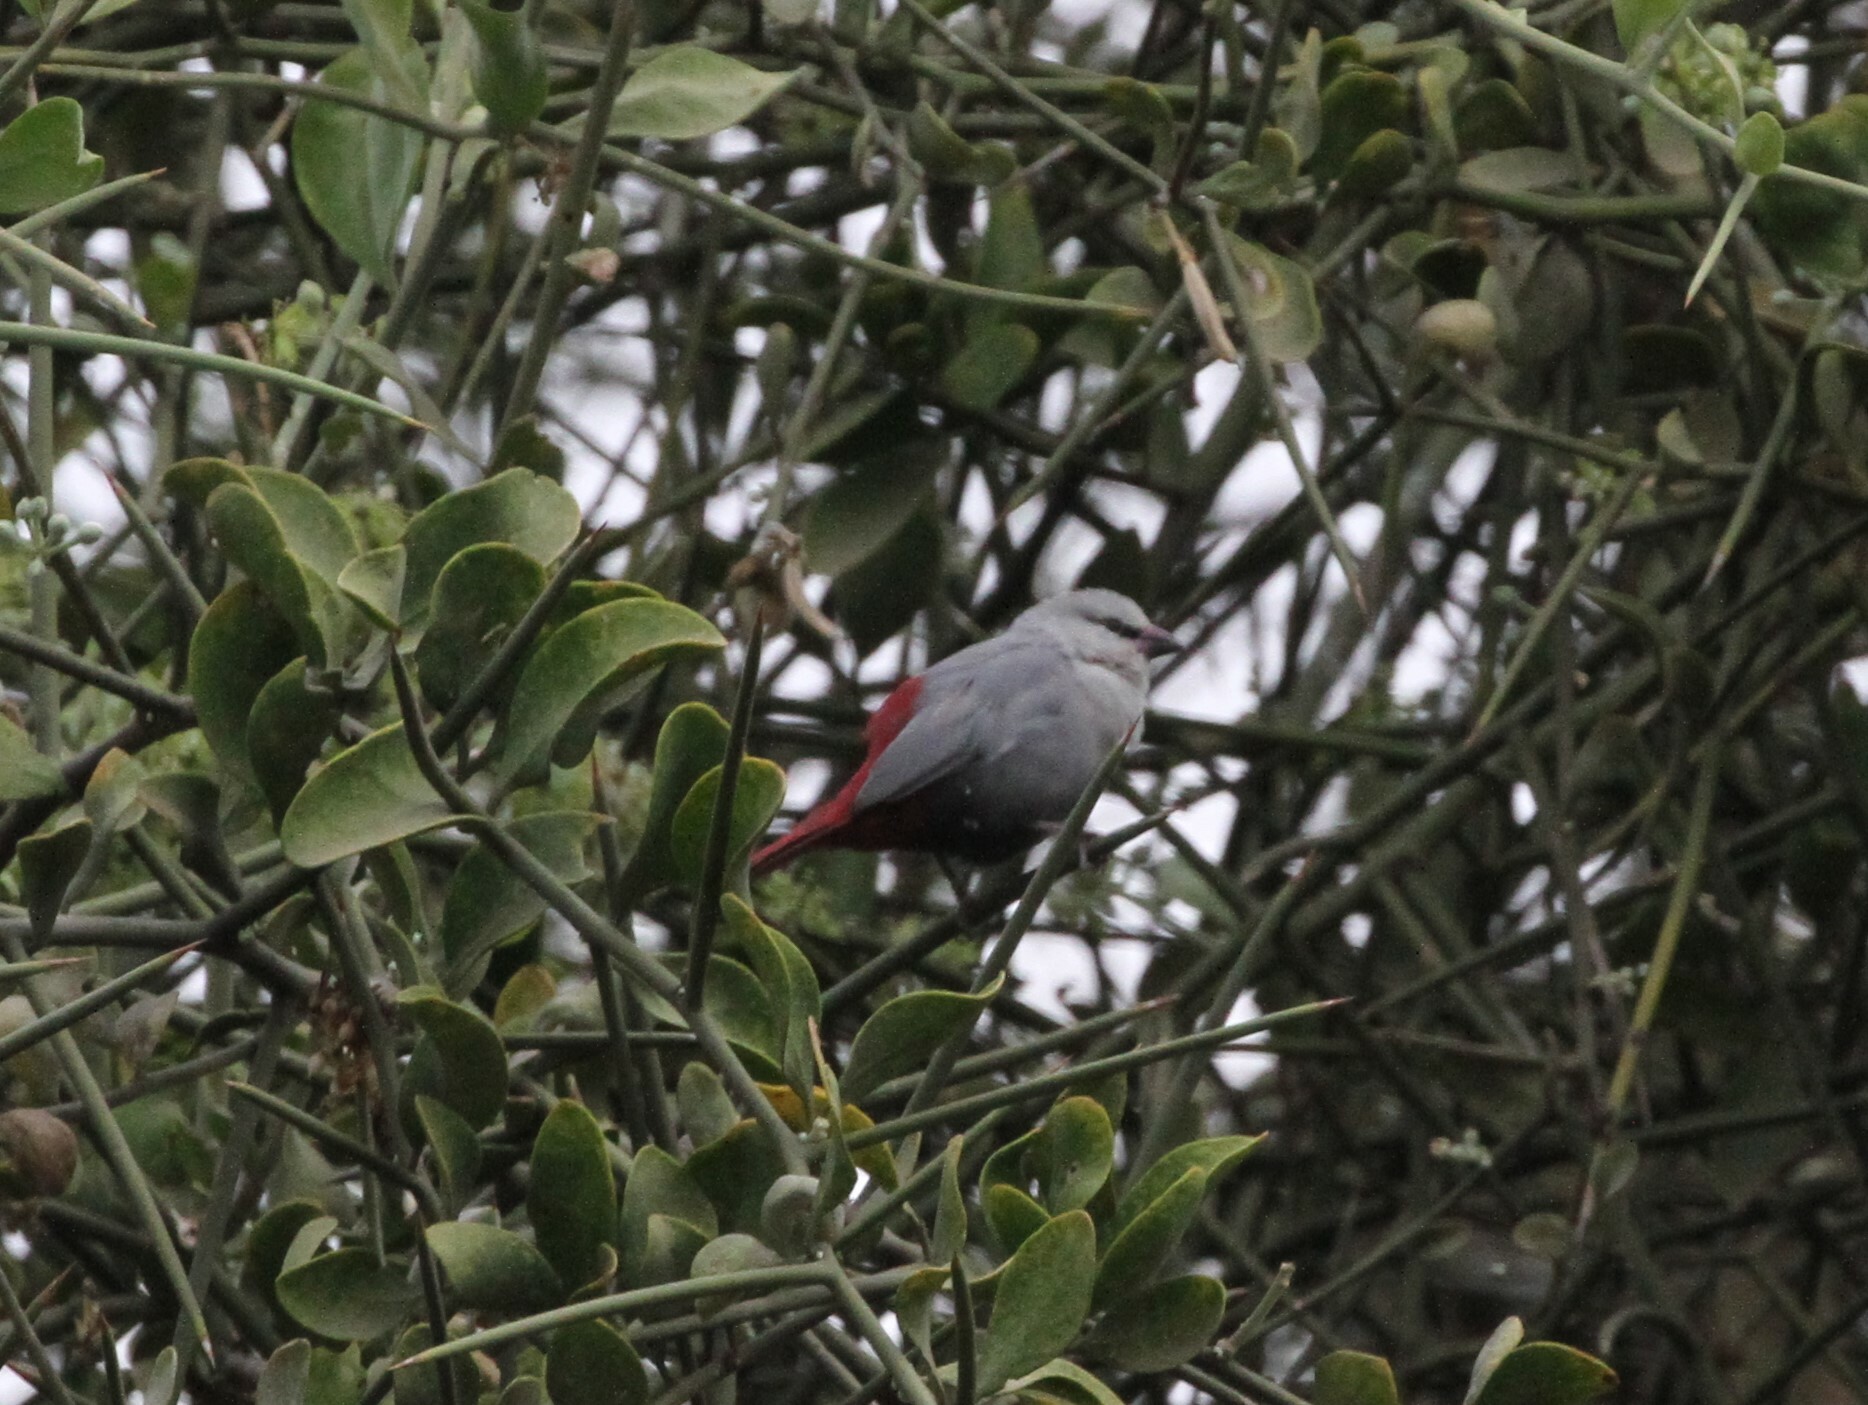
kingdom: Animalia
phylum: Chordata
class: Aves
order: Passeriformes
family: Estrildidae
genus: Estrilda
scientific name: Estrilda caerulescens
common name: Lavender waxbill
